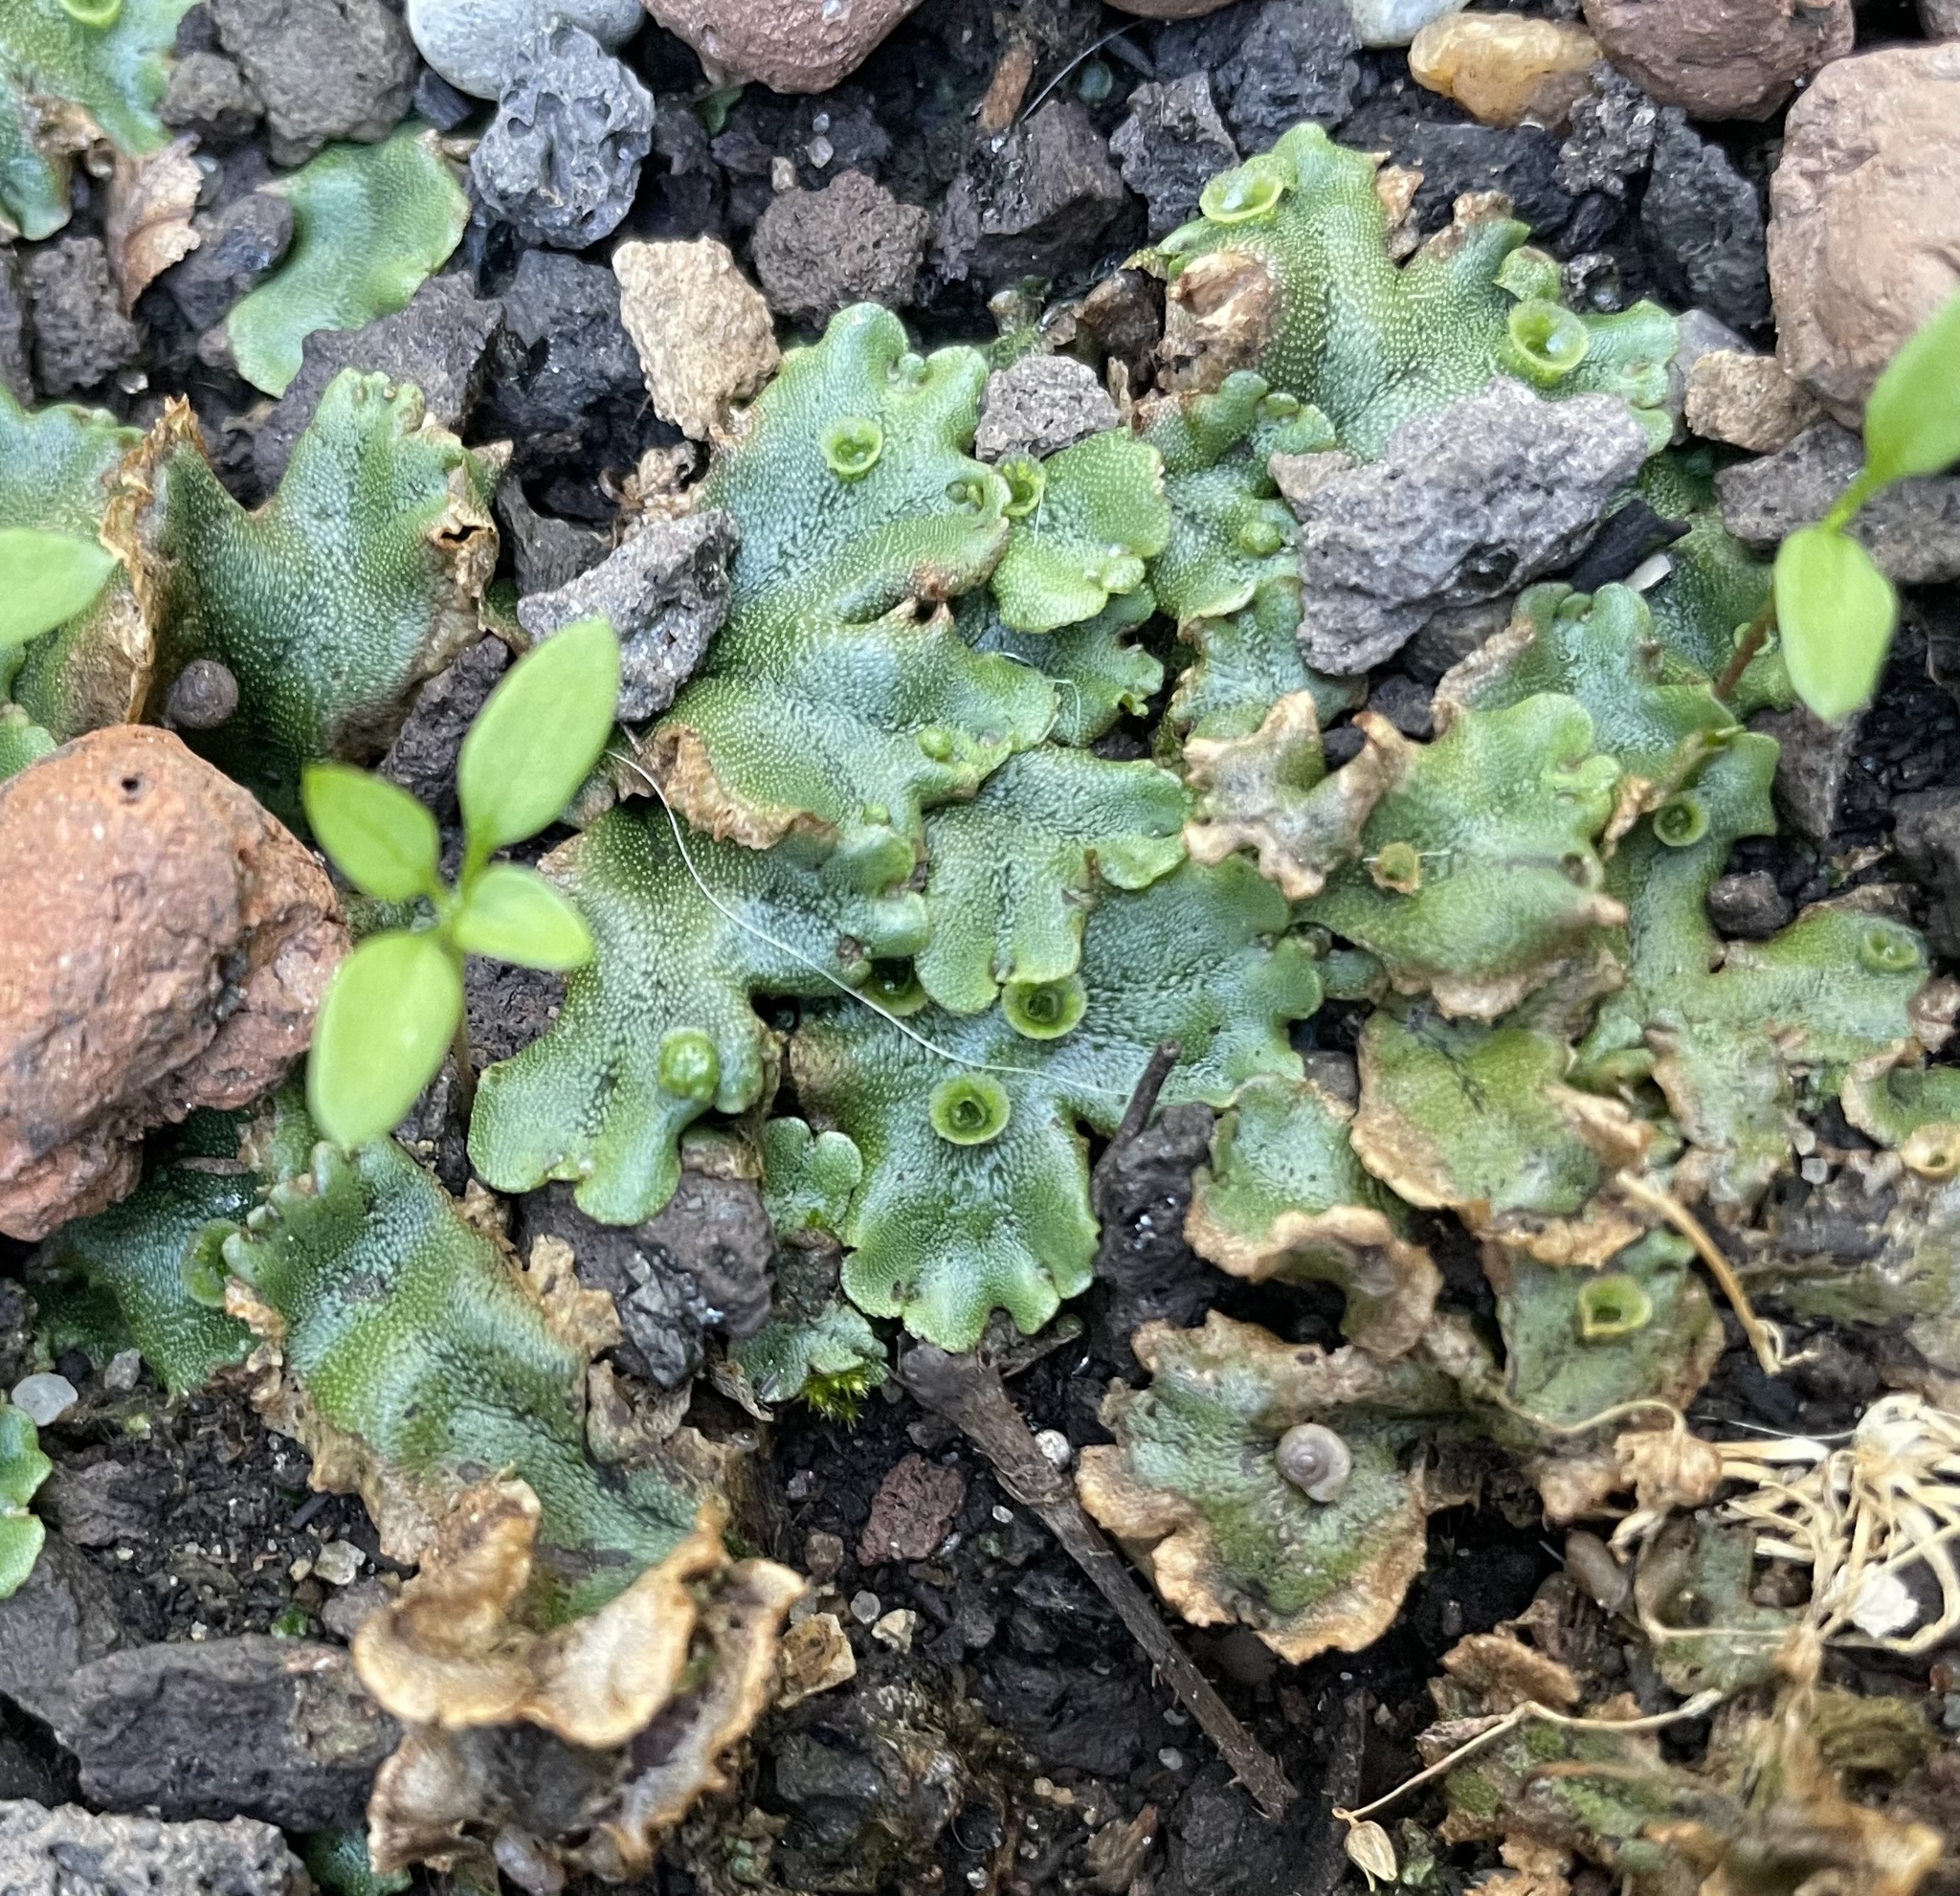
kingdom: Plantae
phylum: Marchantiophyta
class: Marchantiopsida
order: Marchantiales
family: Marchantiaceae
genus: Marchantia
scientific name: Marchantia polymorpha
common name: Common liverwort
